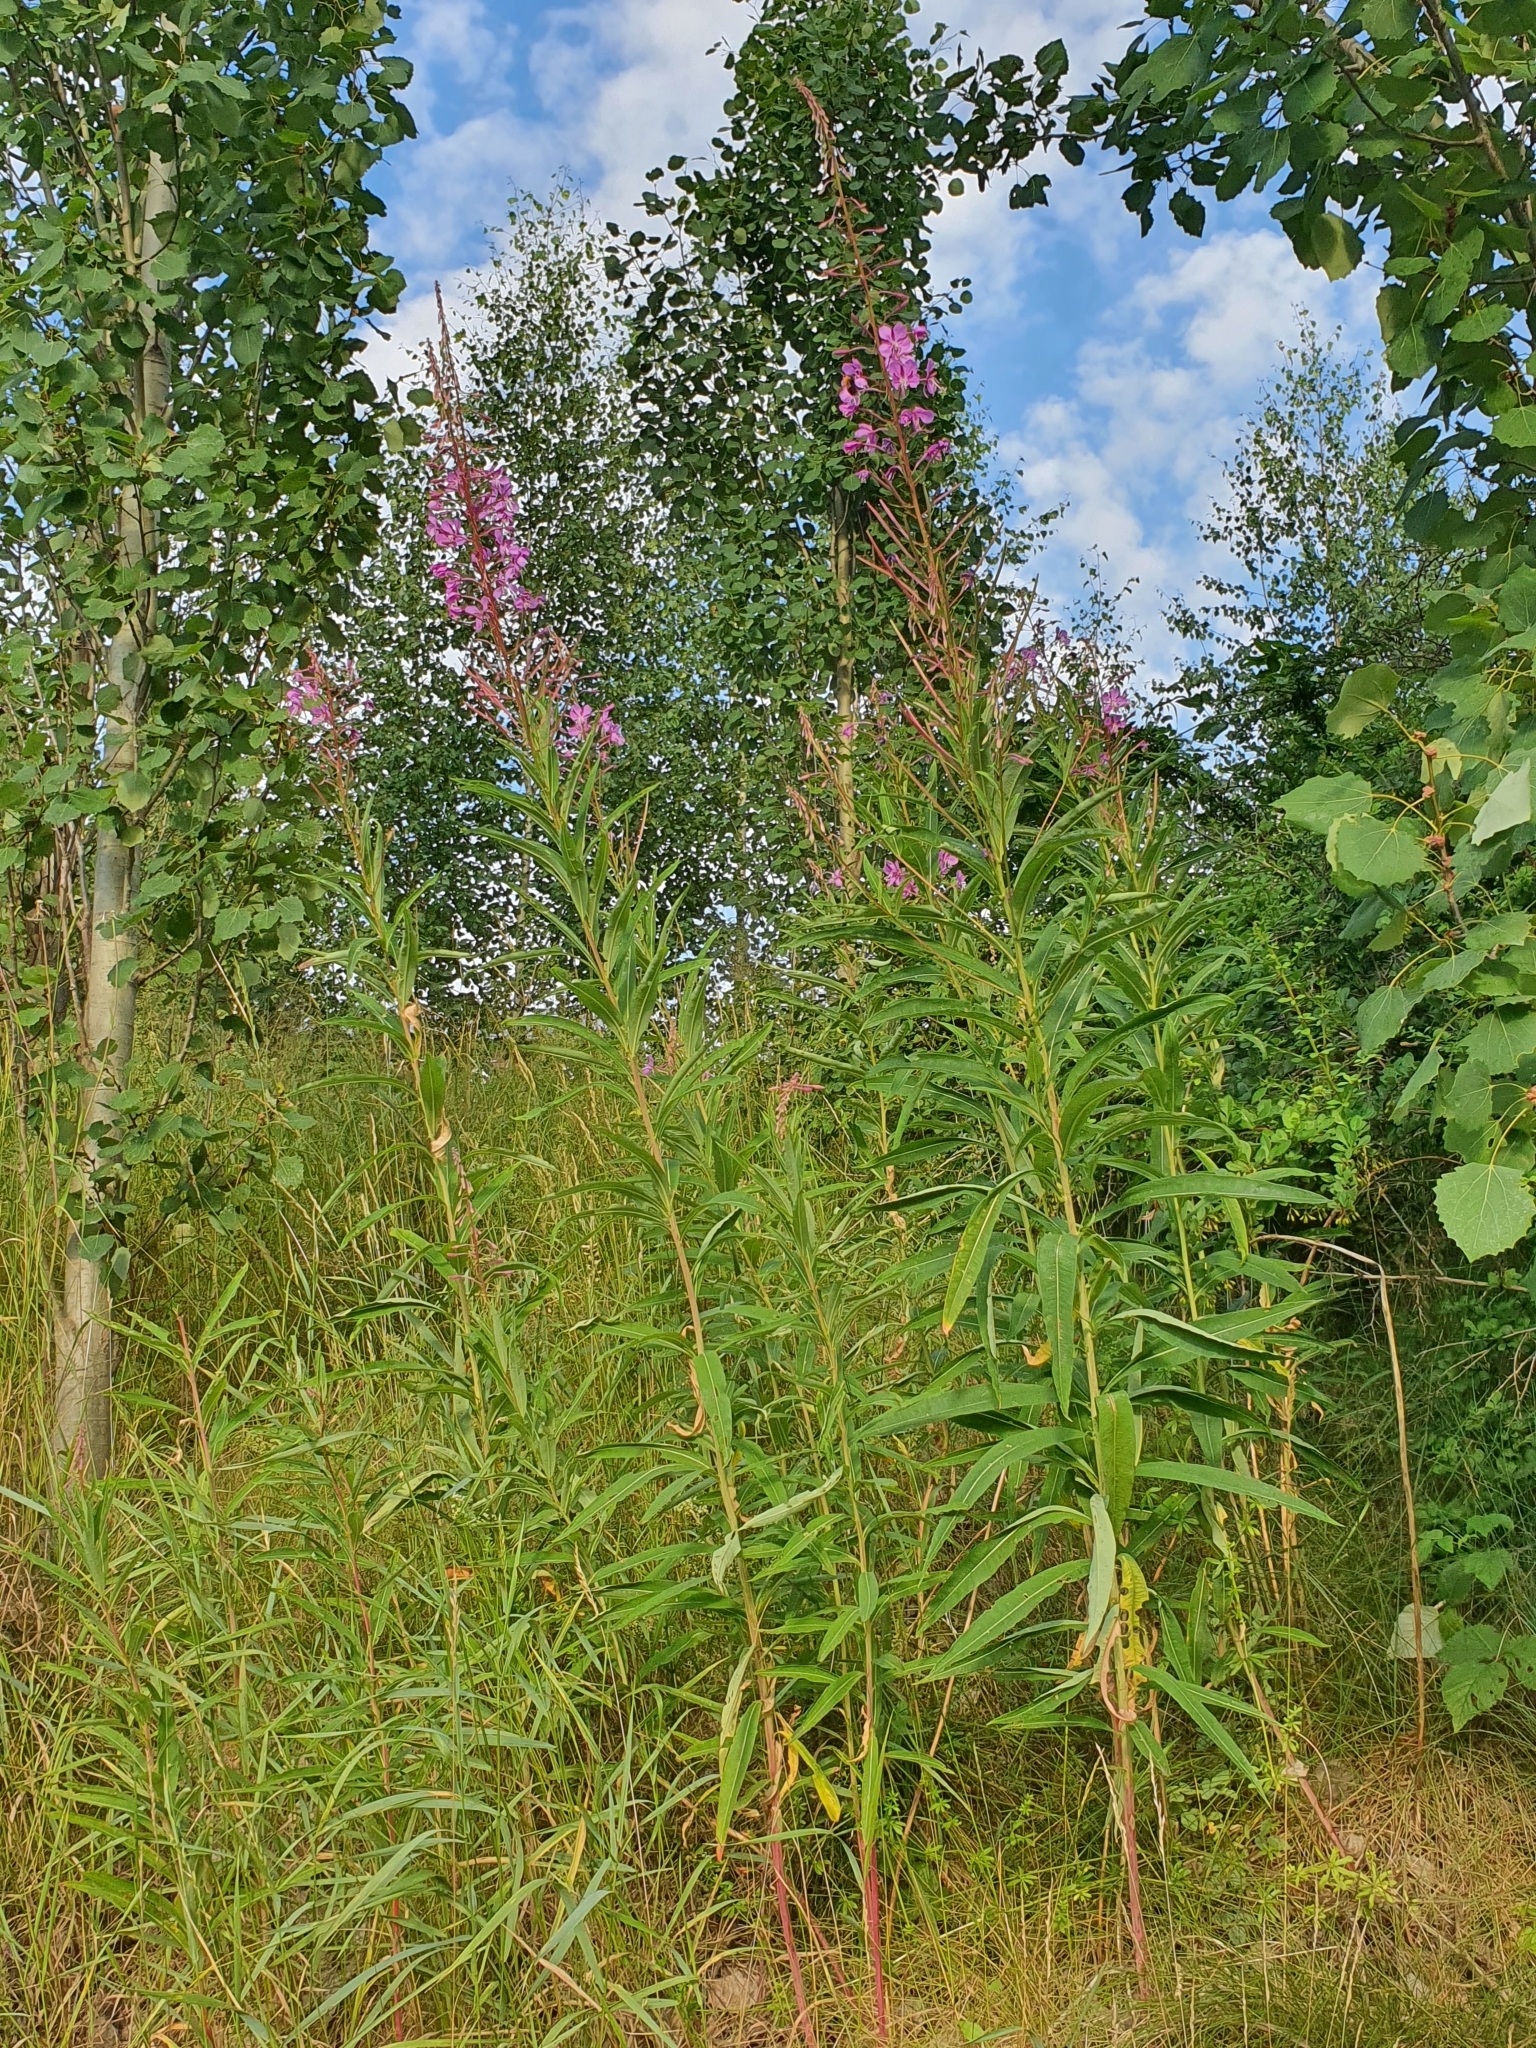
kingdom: Plantae
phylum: Tracheophyta
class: Magnoliopsida
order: Myrtales
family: Onagraceae
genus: Chamaenerion
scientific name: Chamaenerion angustifolium
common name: Fireweed
